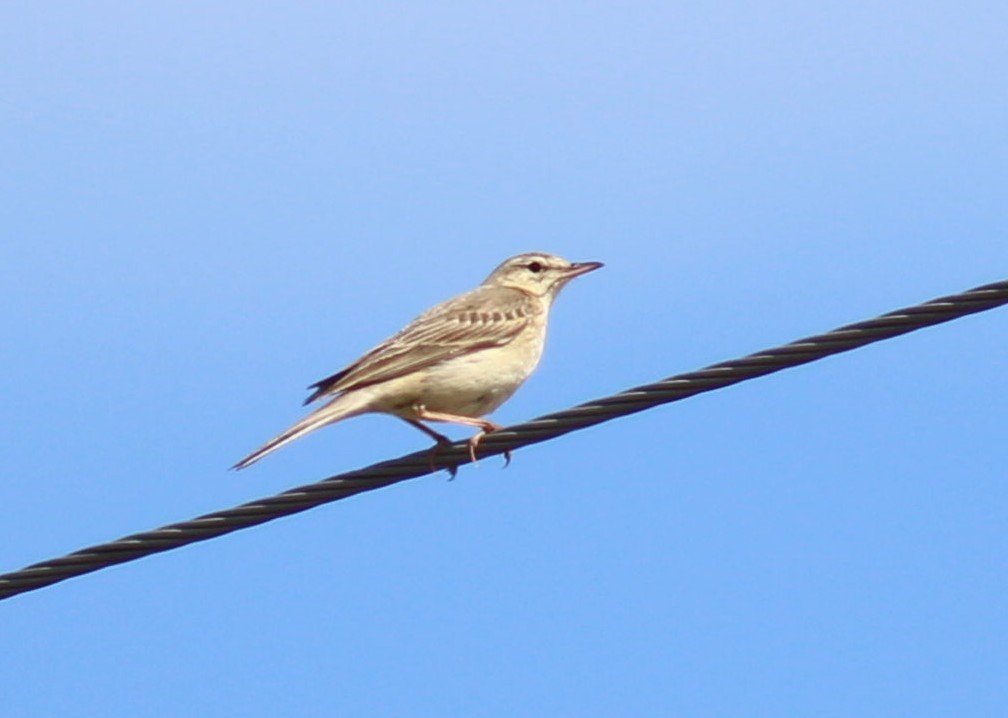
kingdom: Animalia
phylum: Chordata
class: Aves
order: Passeriformes
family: Motacillidae
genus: Anthus
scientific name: Anthus campestris
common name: Tawny pipit
